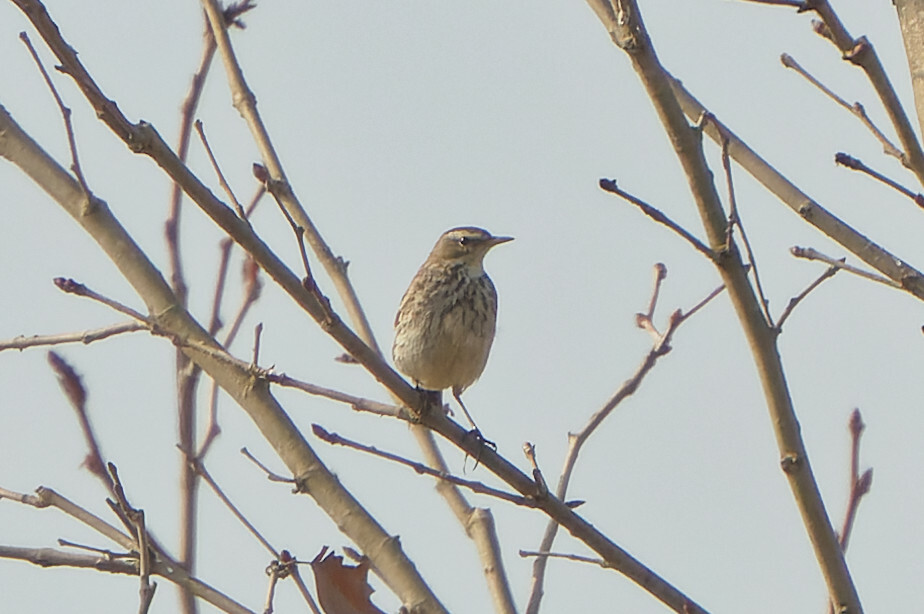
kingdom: Animalia
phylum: Chordata
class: Aves
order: Passeriformes
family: Motacillidae
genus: Anthus
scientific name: Anthus spinoletta
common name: Water pipit
